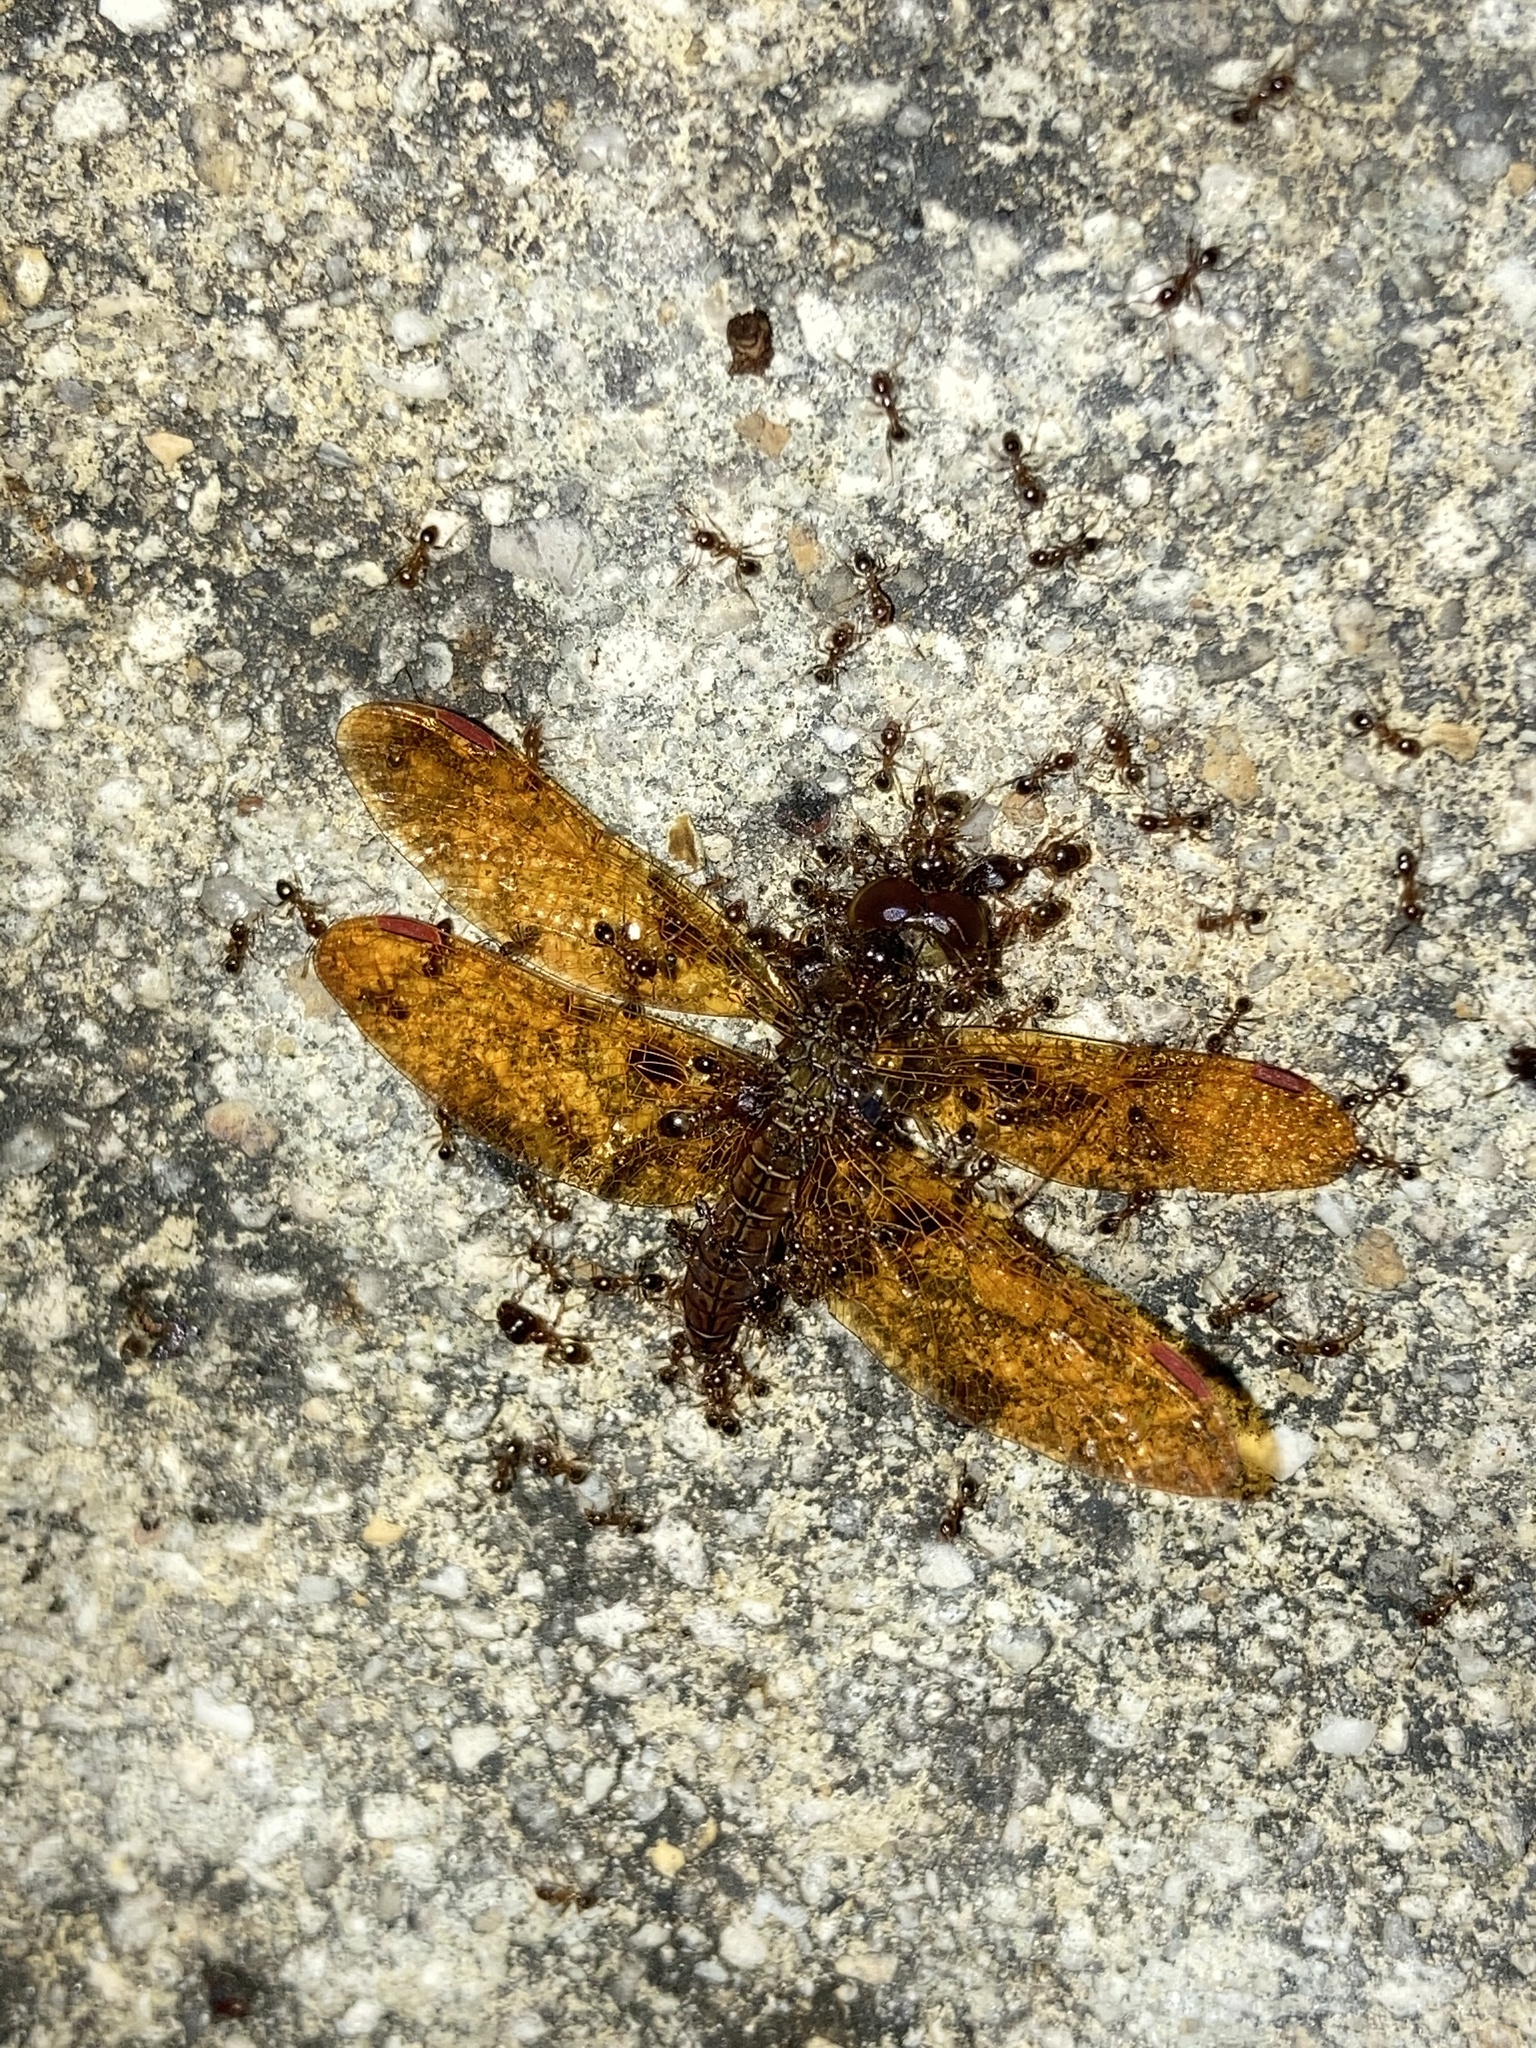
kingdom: Animalia
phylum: Arthropoda
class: Insecta
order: Odonata
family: Libellulidae
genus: Perithemis
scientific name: Perithemis tenera
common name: Eastern amberwing
